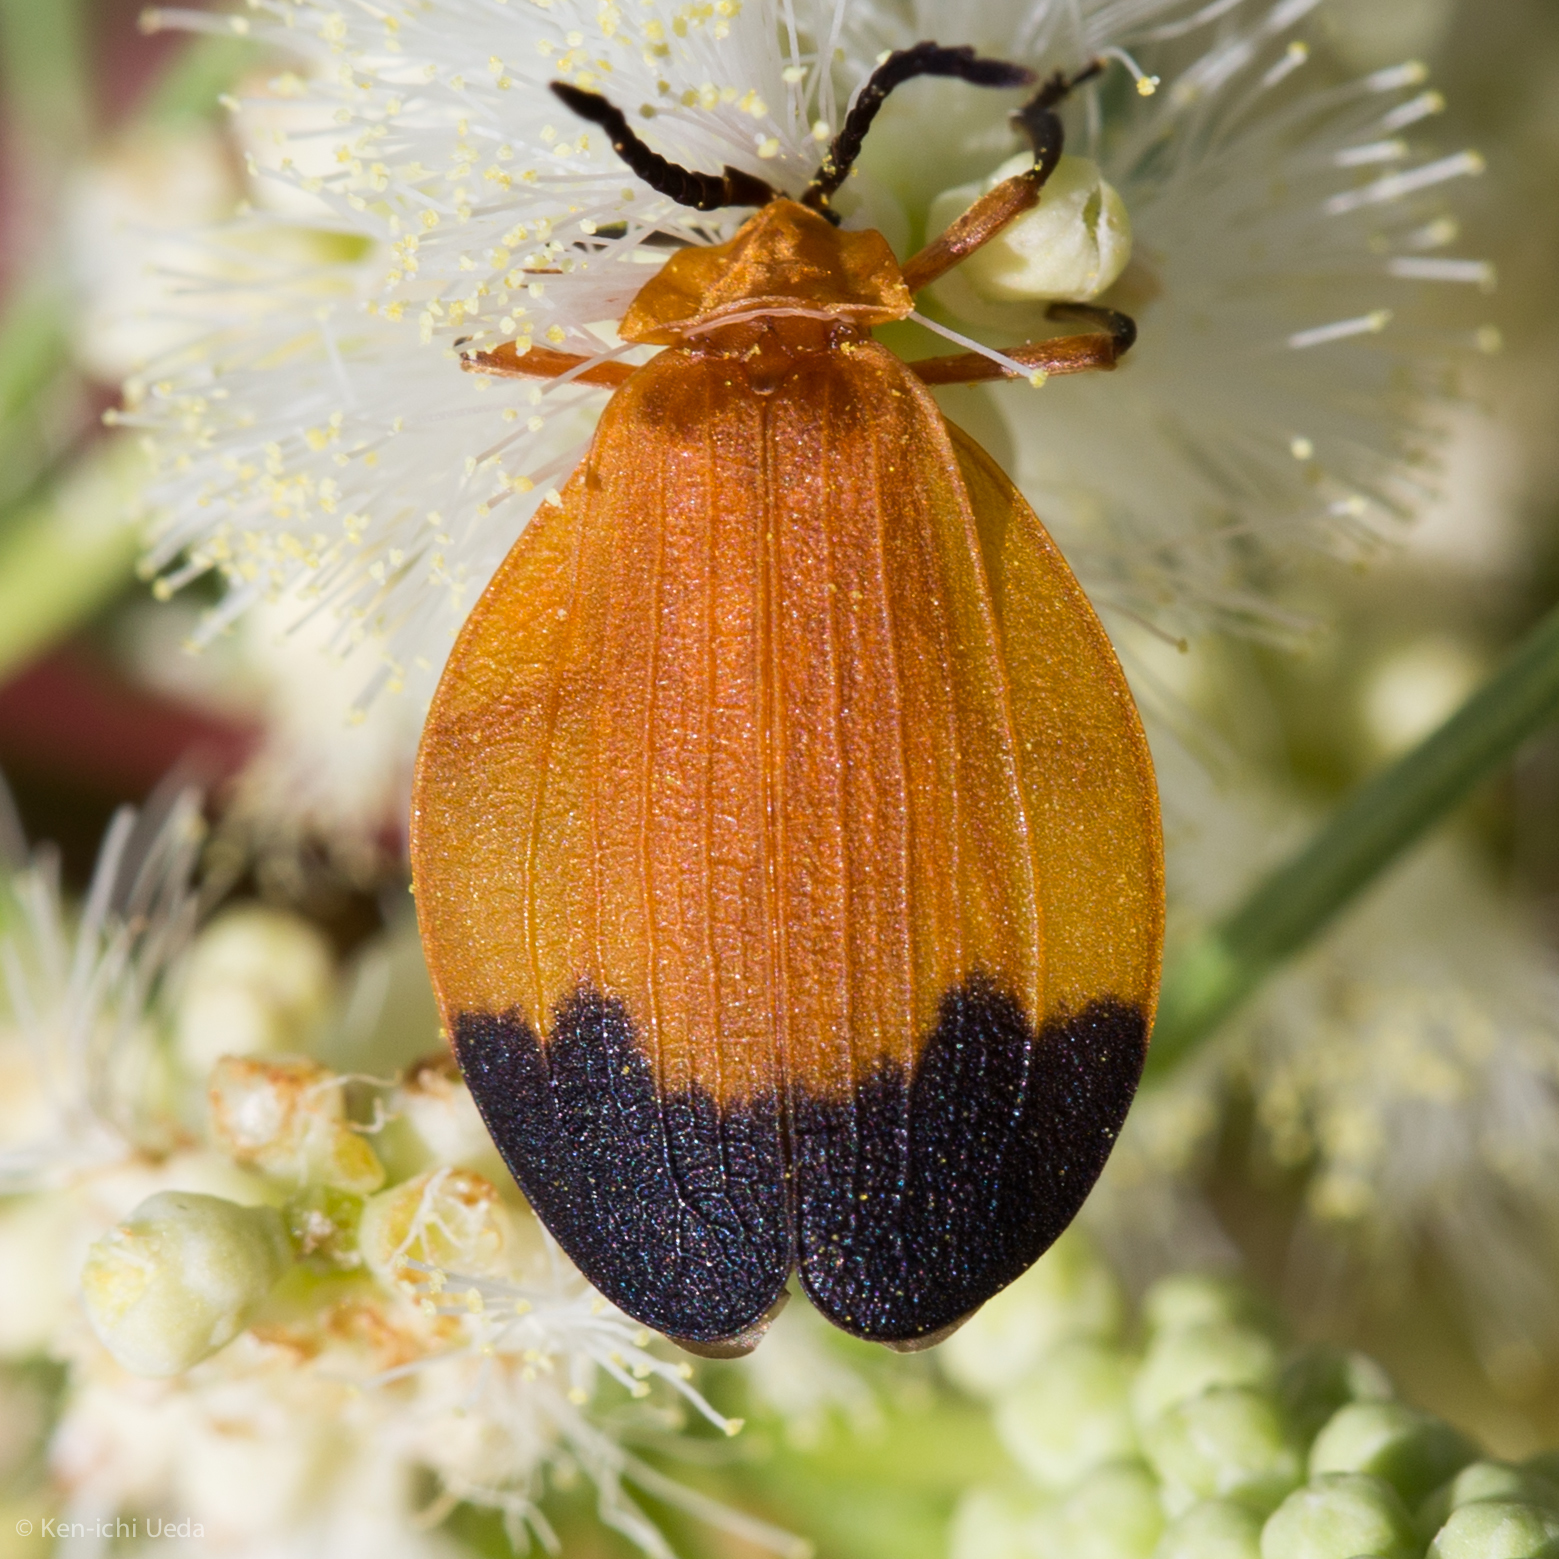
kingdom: Animalia
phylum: Arthropoda
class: Insecta
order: Coleoptera
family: Lycidae
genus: Lycus
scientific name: Lycus fernandezi
